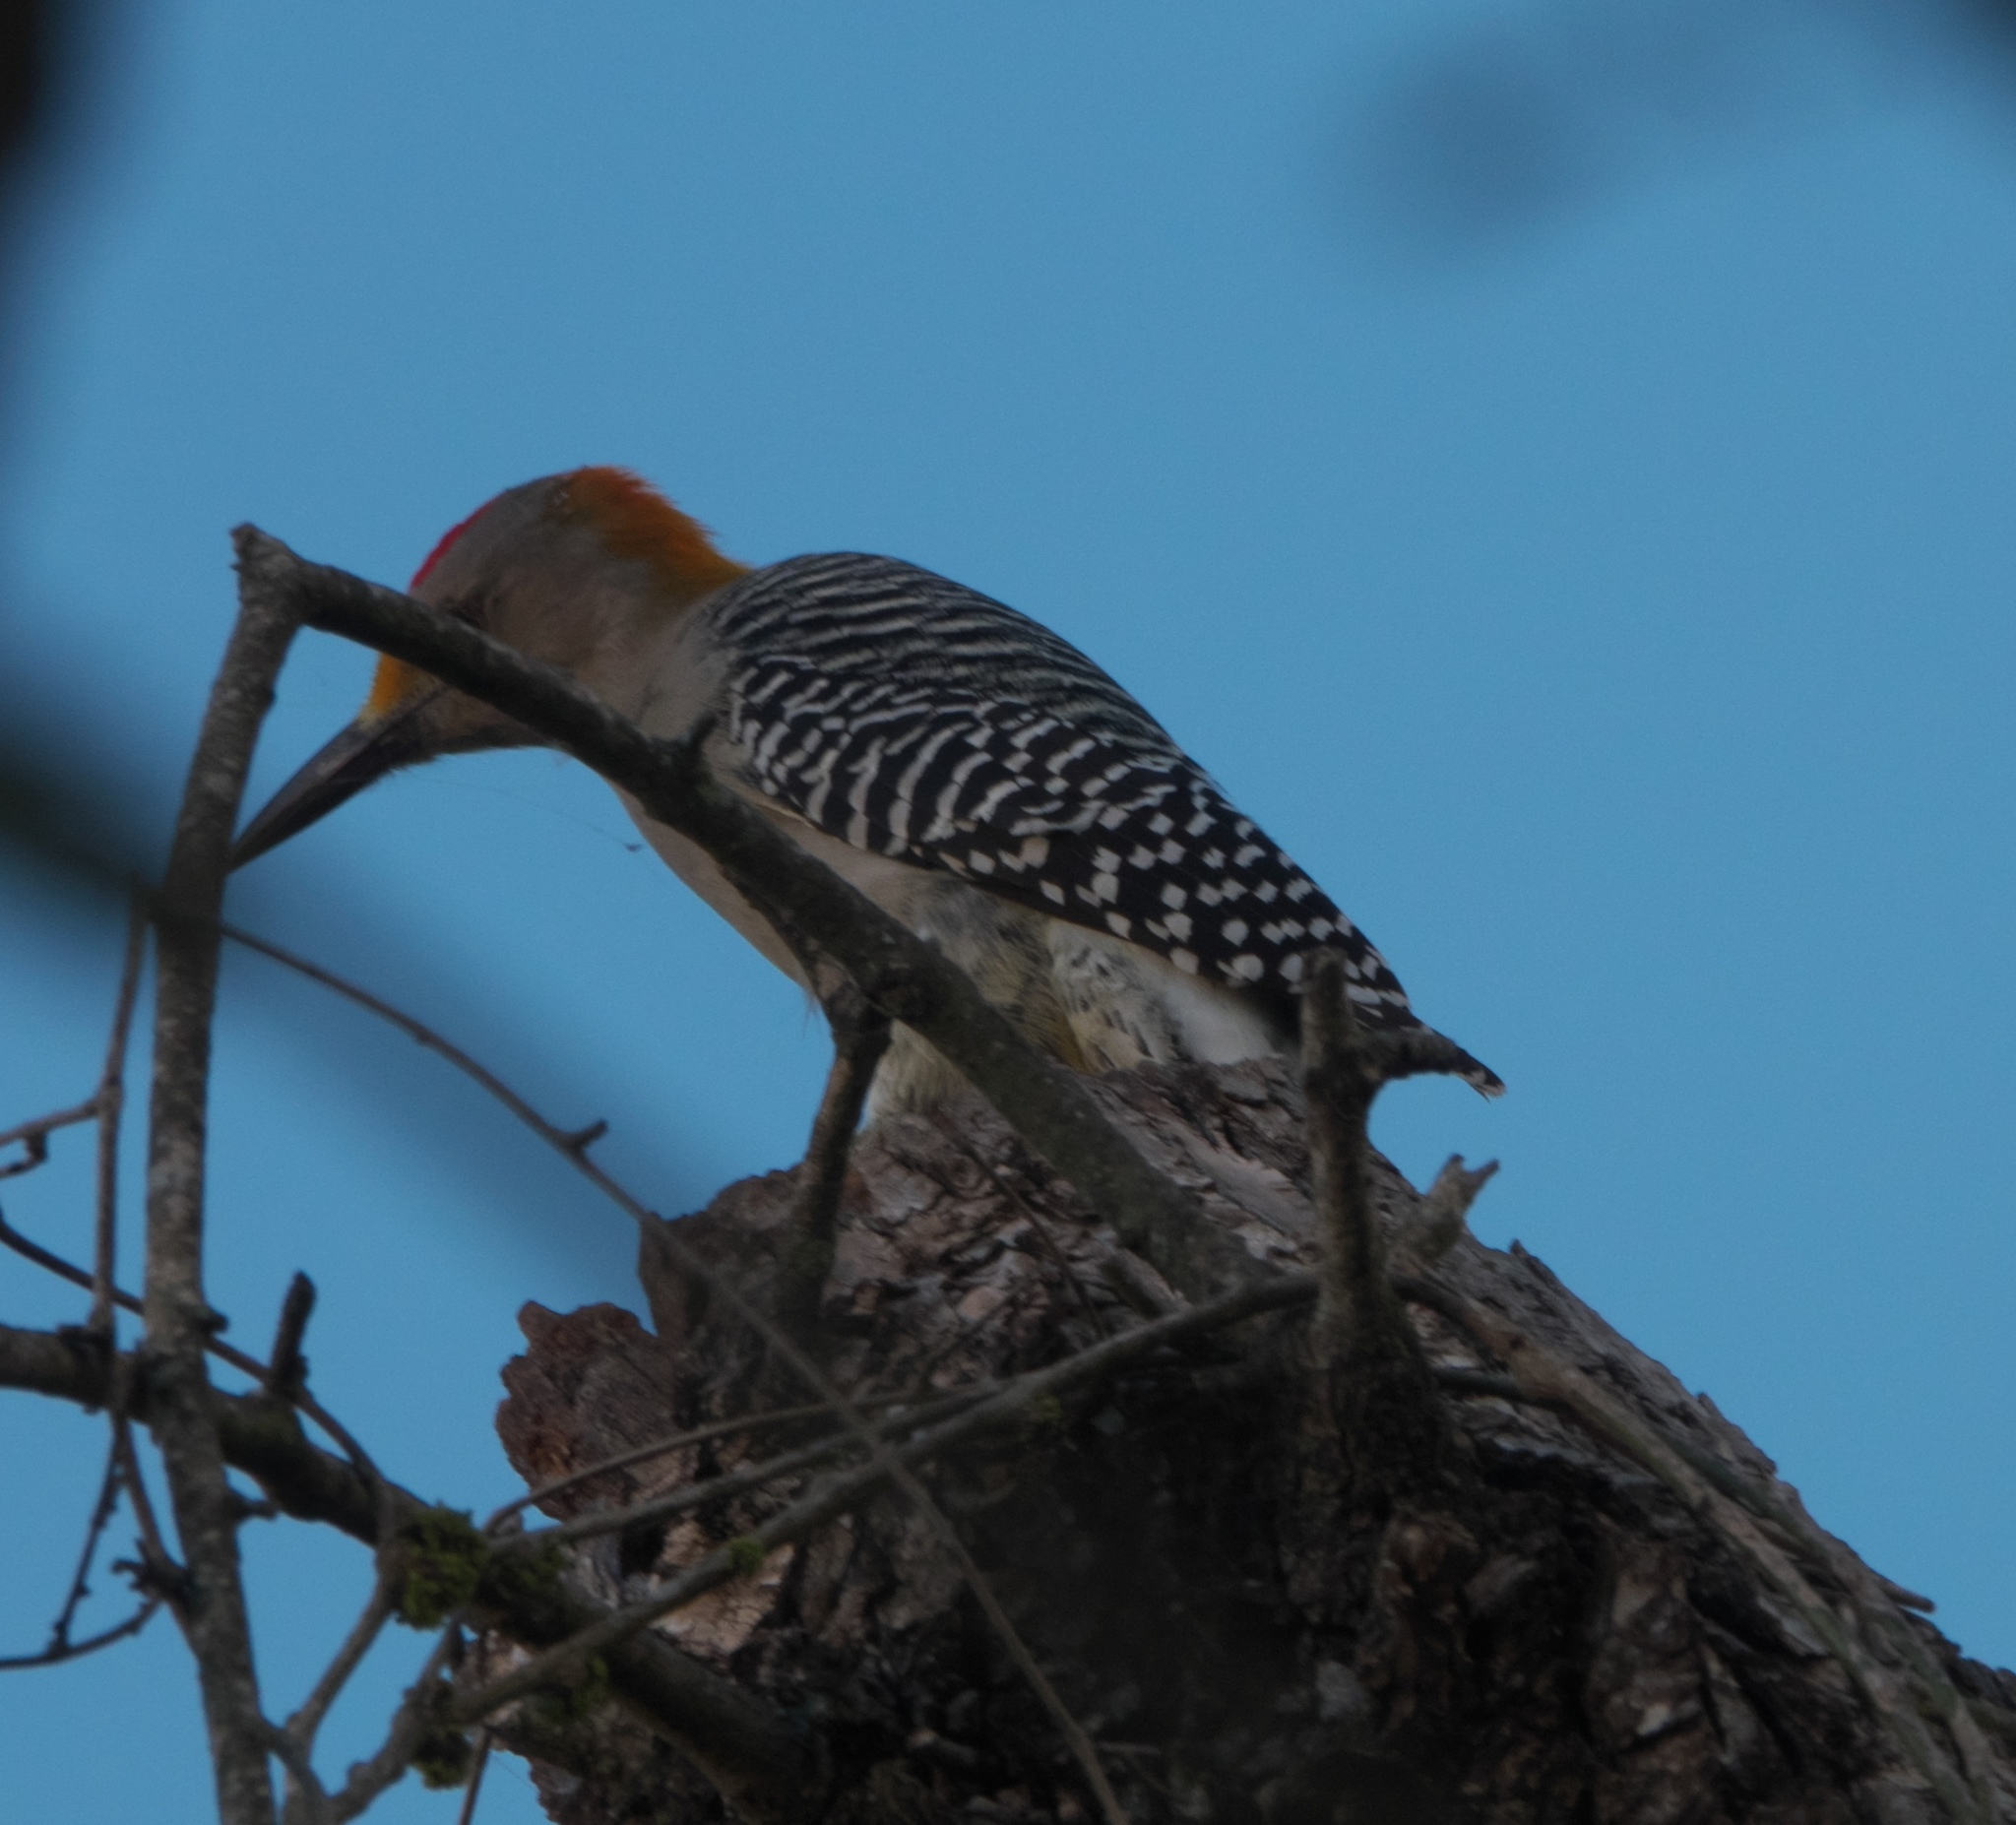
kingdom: Animalia
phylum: Chordata
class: Aves
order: Piciformes
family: Picidae
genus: Melanerpes
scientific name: Melanerpes aurifrons
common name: Golden-fronted woodpecker
